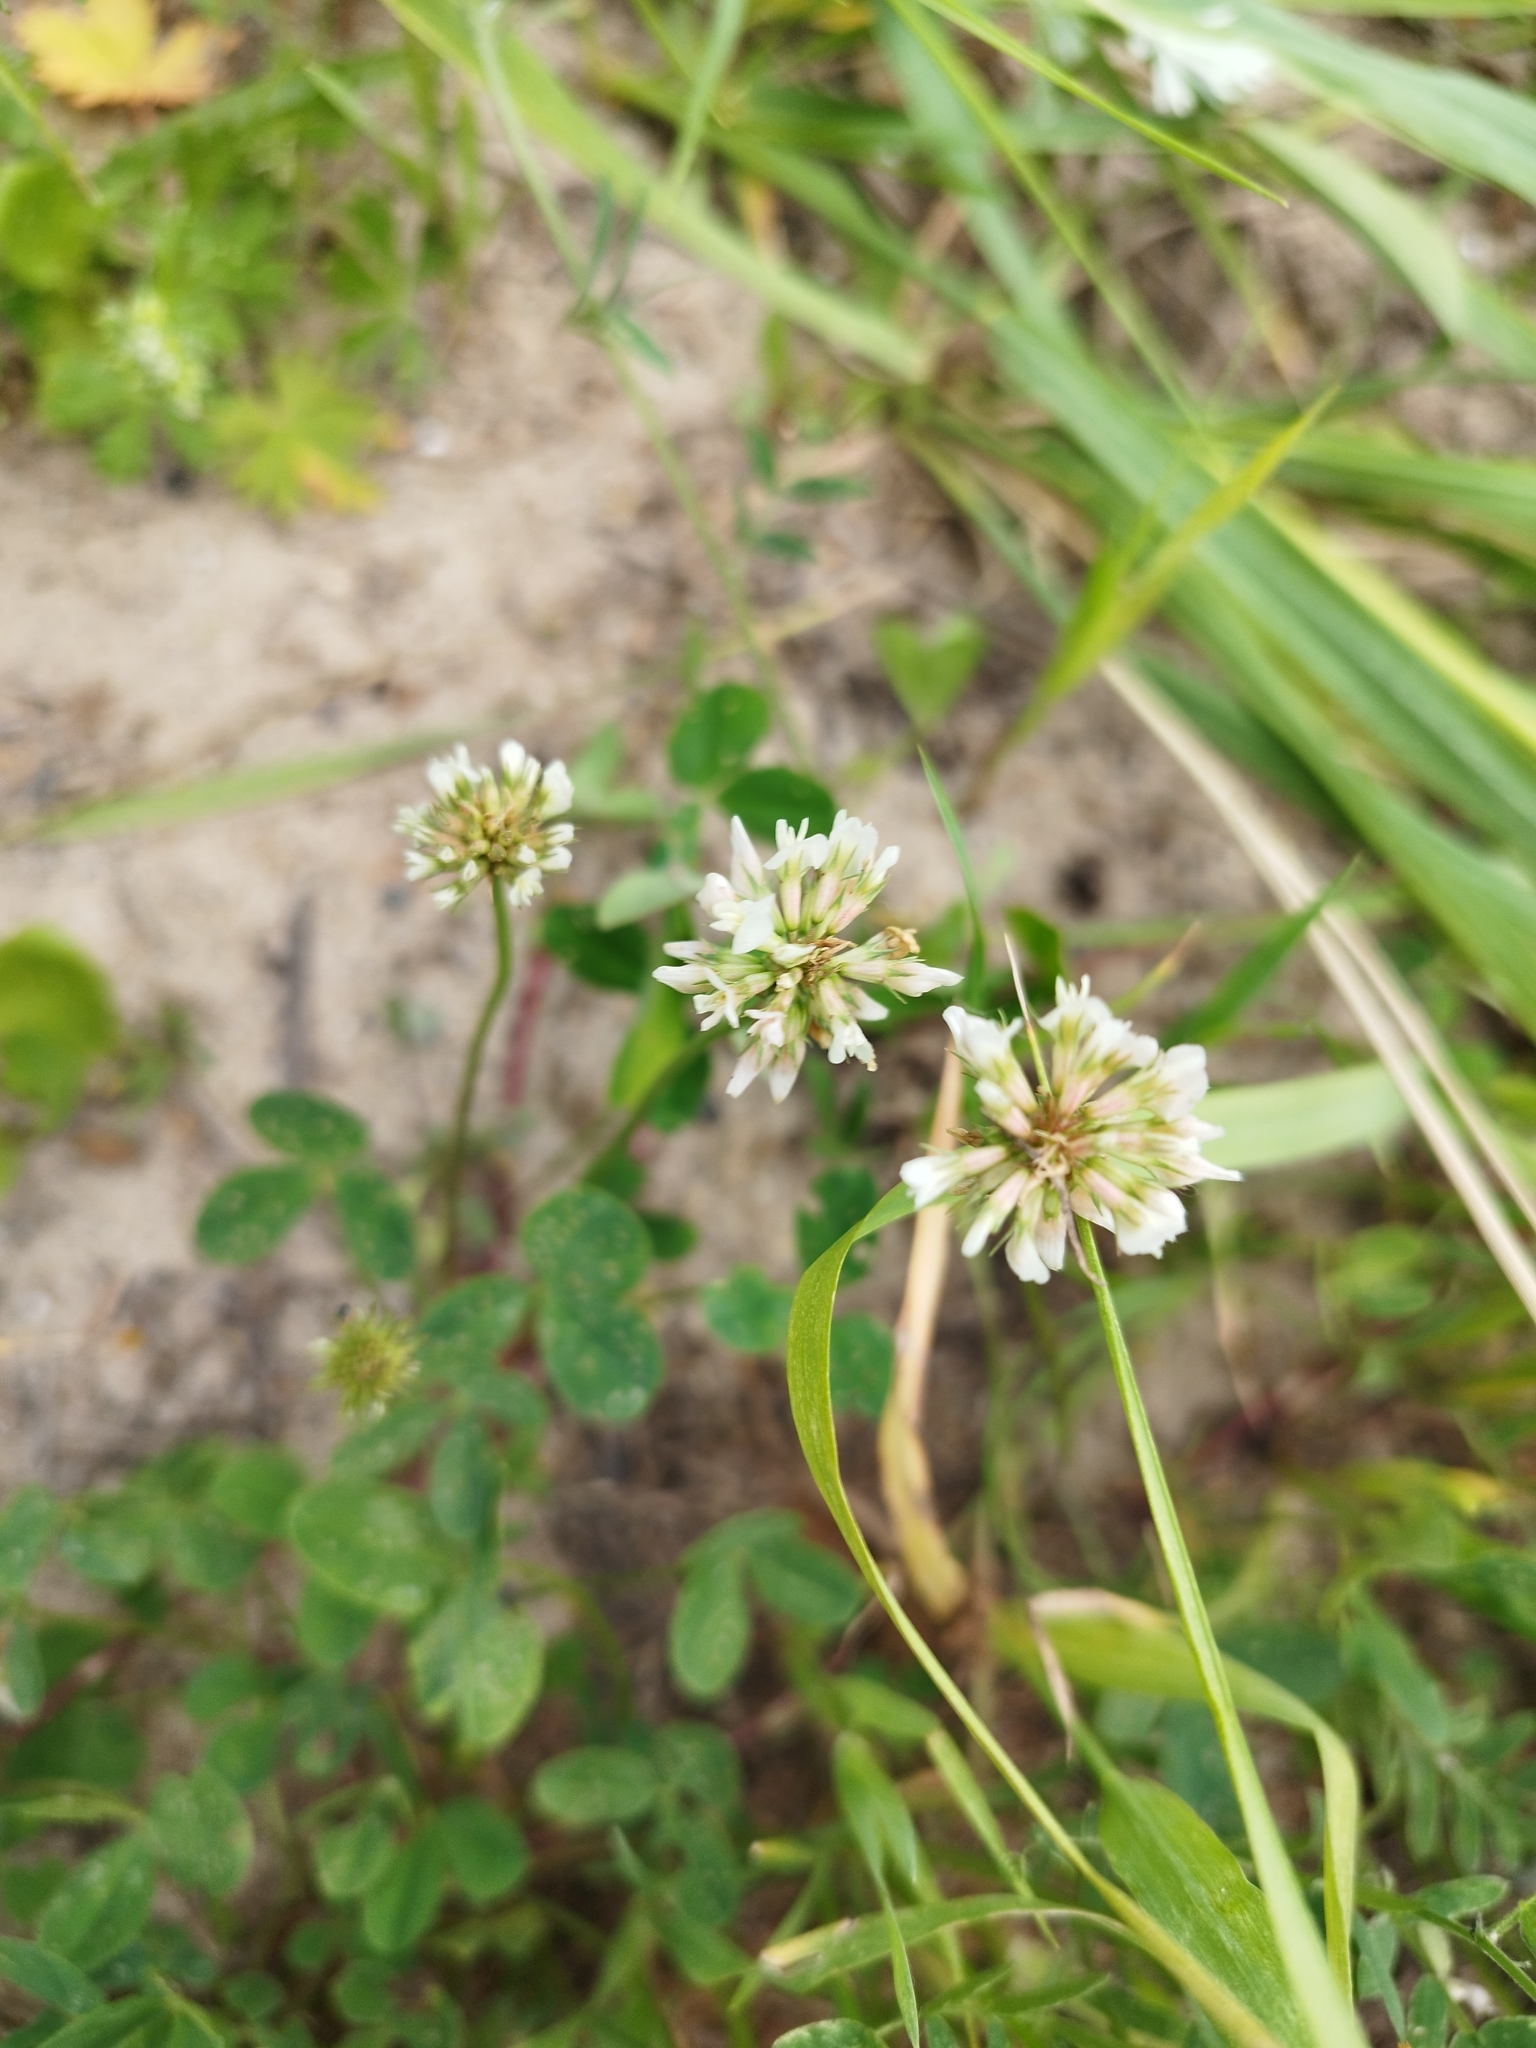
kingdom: Plantae
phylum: Tracheophyta
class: Magnoliopsida
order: Fabales
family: Fabaceae
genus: Trifolium
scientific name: Trifolium repens
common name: White clover
